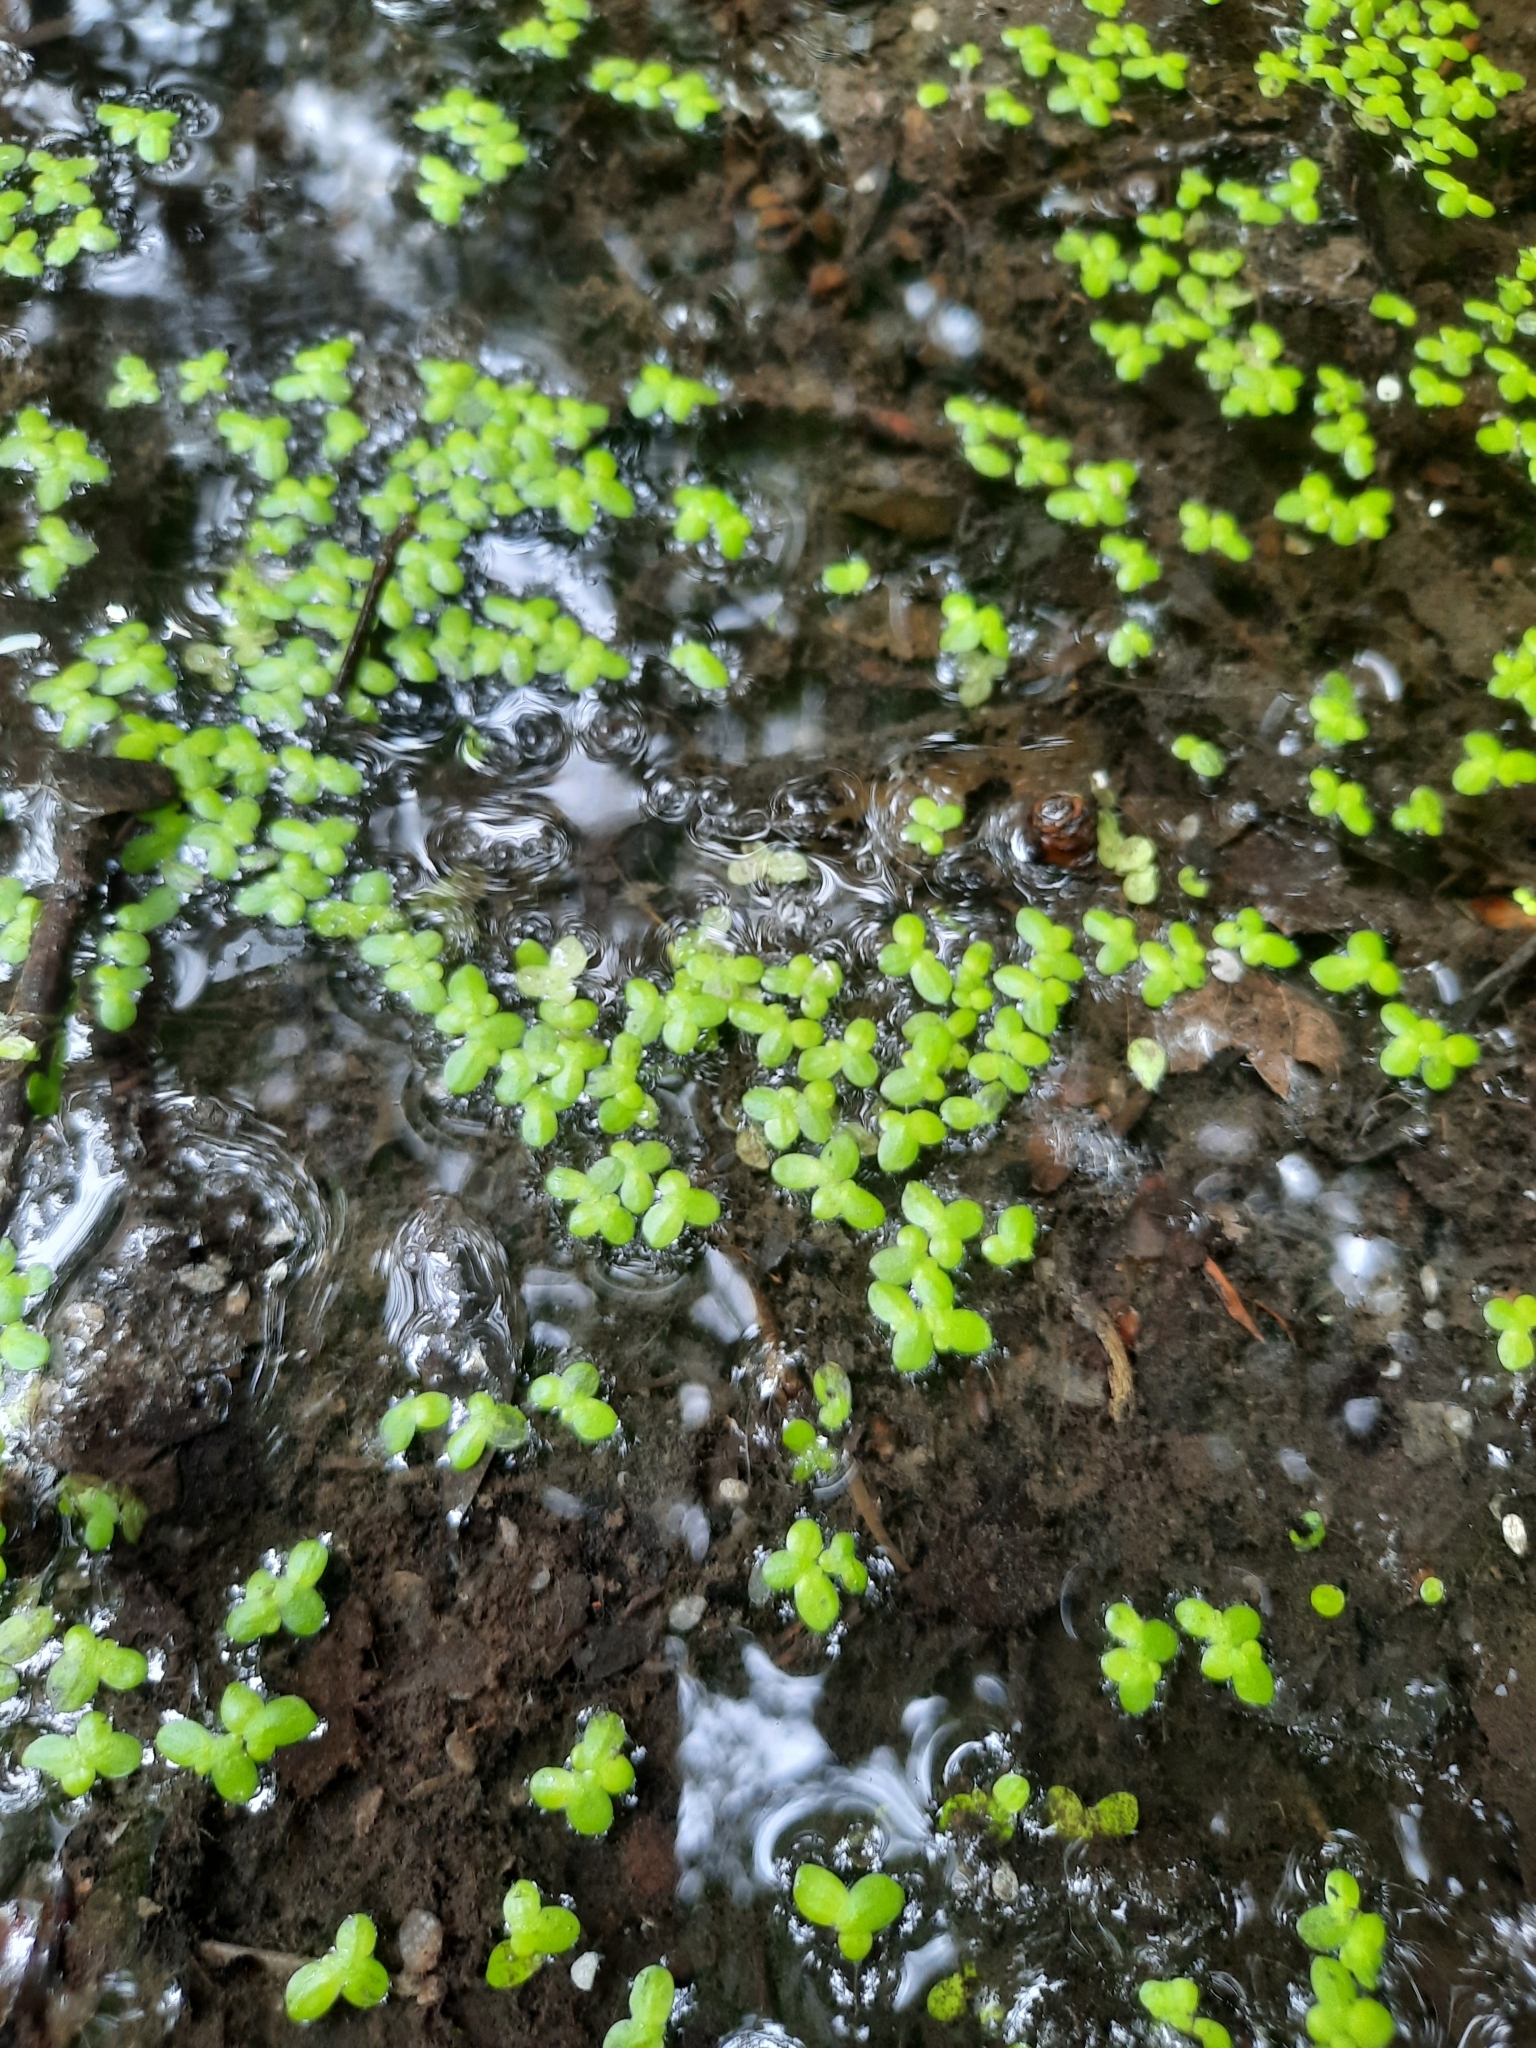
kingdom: Plantae
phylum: Tracheophyta
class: Liliopsida
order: Alismatales
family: Araceae
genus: Lemna
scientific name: Lemna minor
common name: Common duckweed
